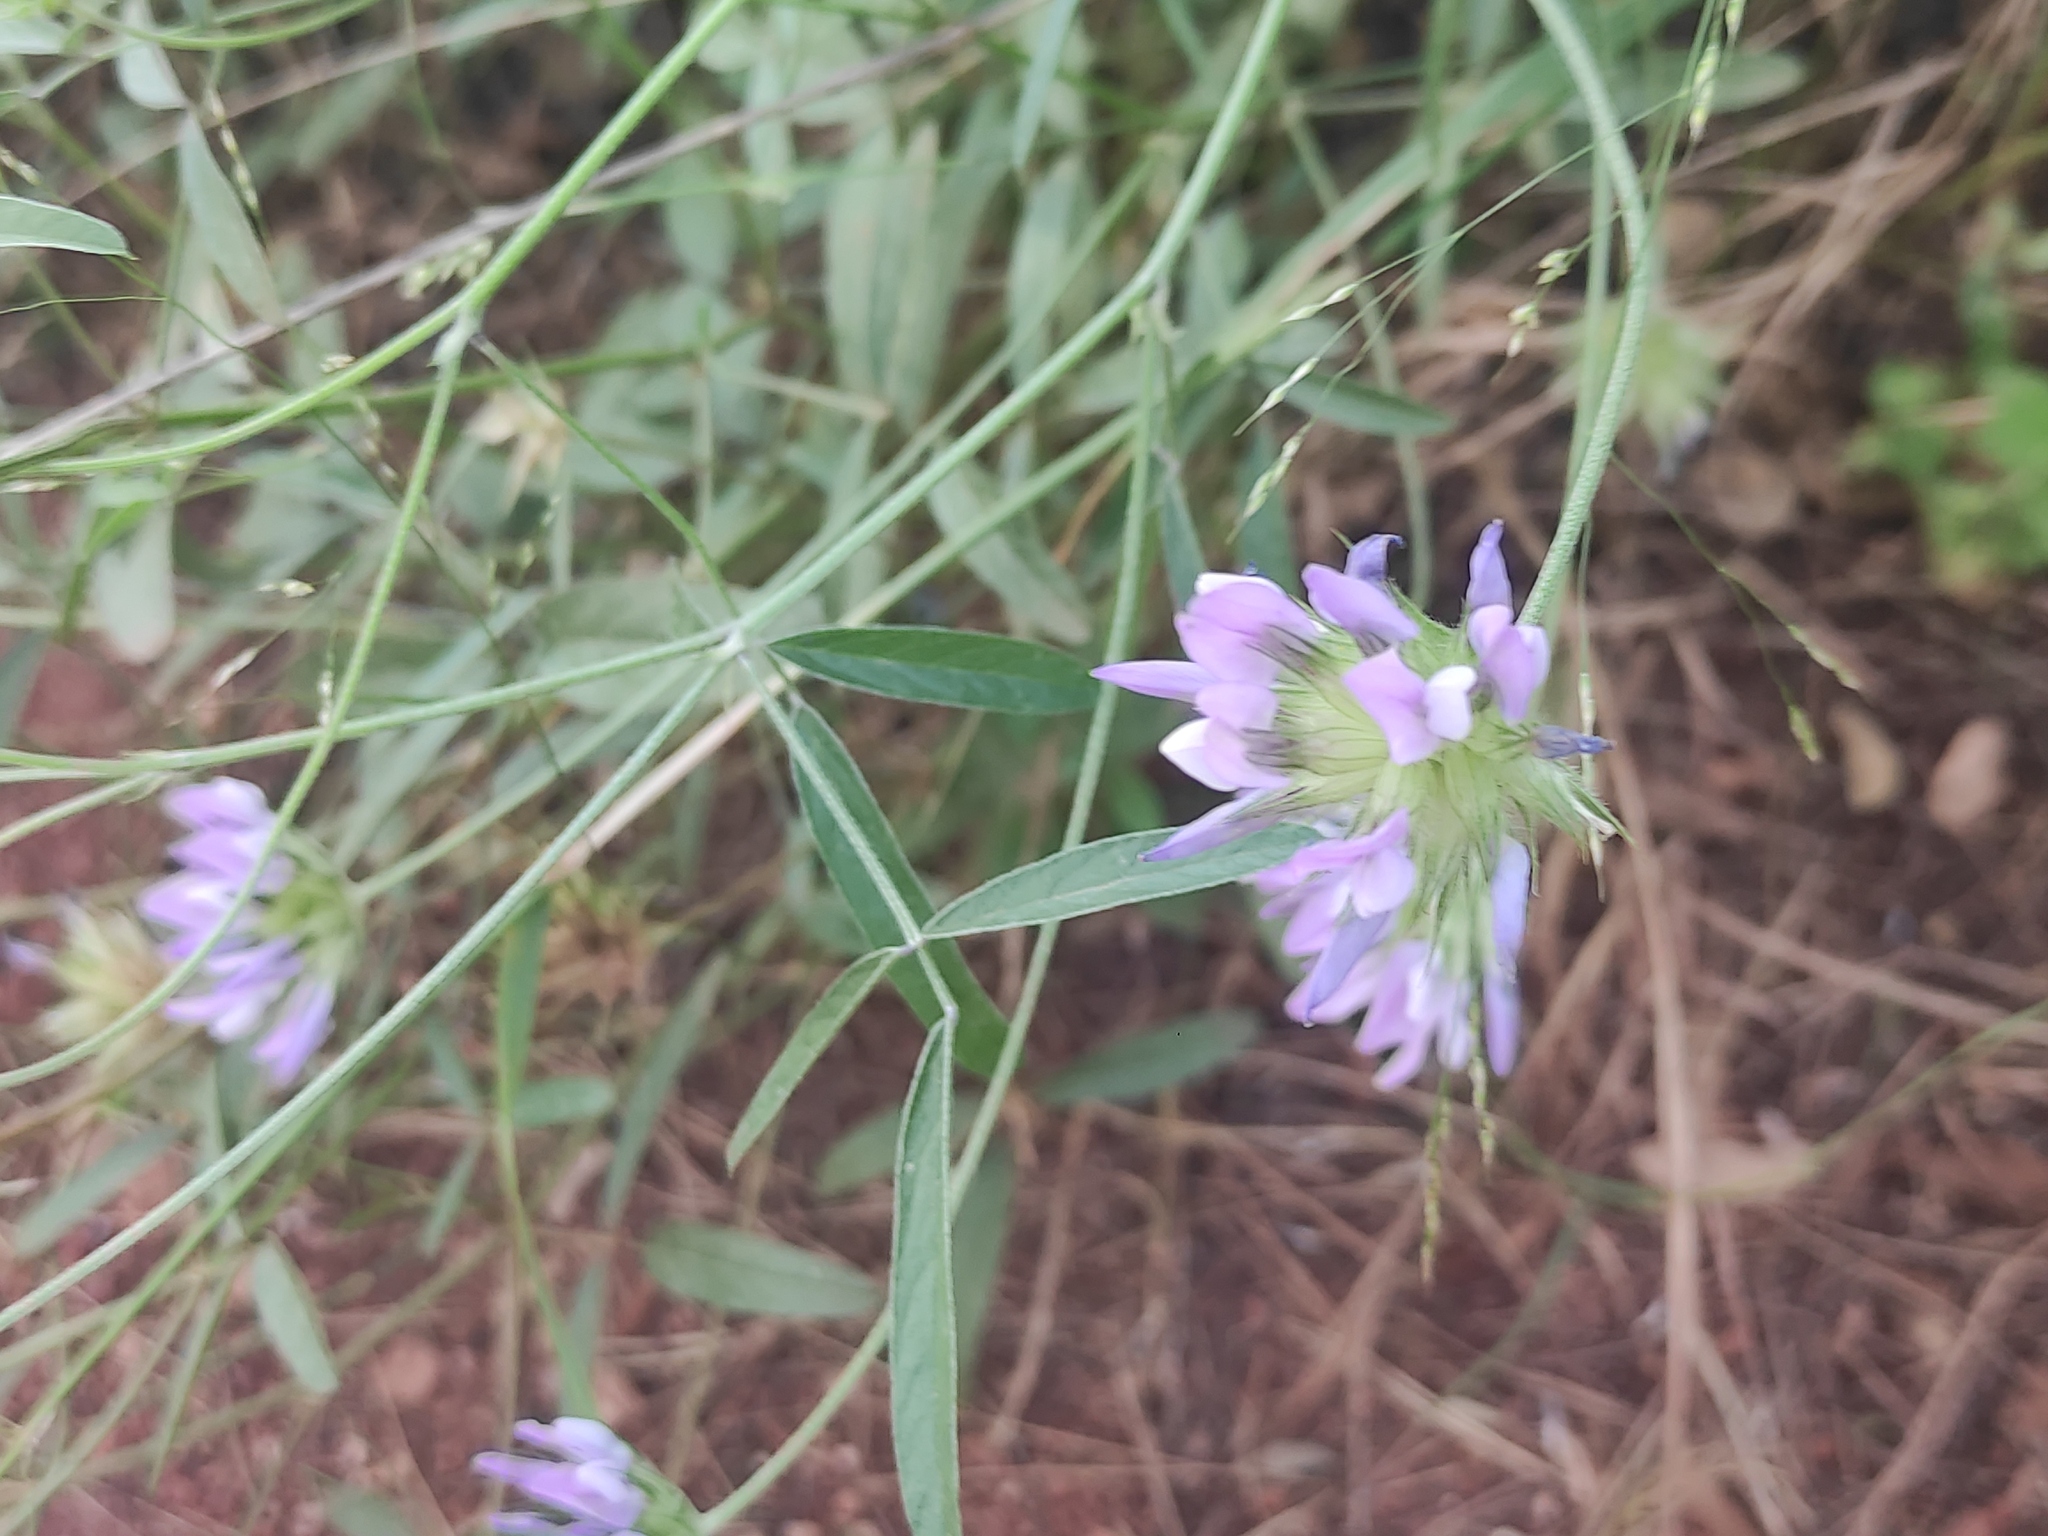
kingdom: Plantae
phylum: Tracheophyta
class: Magnoliopsida
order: Fabales
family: Fabaceae
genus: Bituminaria
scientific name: Bituminaria bituminosa
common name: Arabian pea
